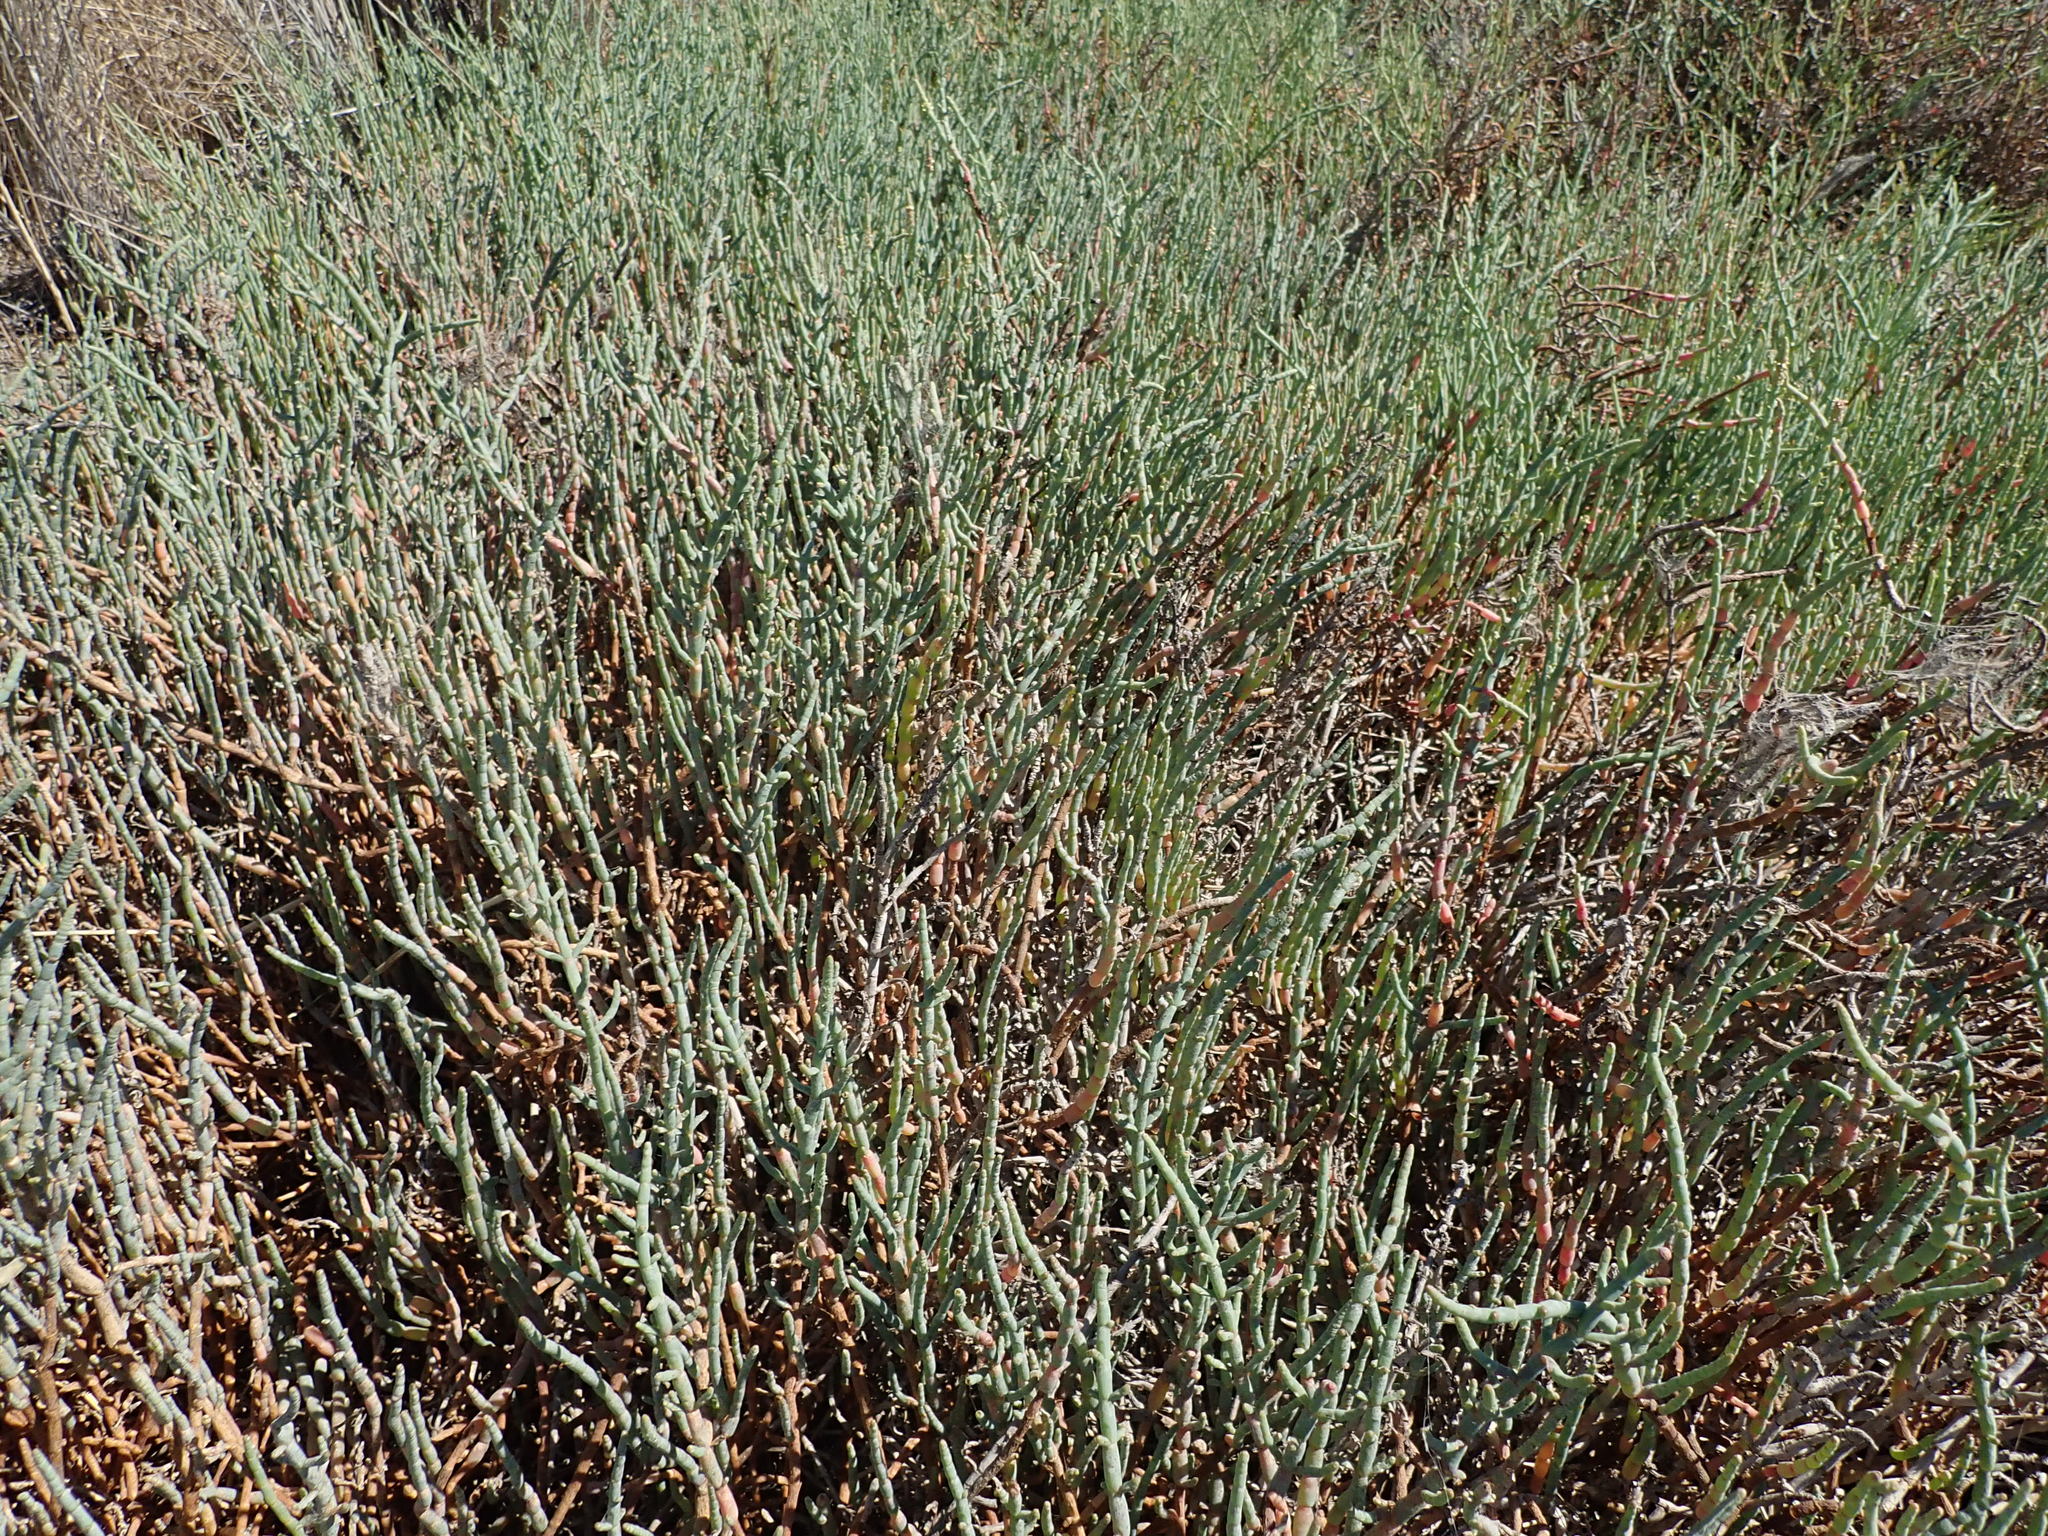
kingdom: Plantae
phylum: Tracheophyta
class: Magnoliopsida
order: Caryophyllales
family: Amaranthaceae
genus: Salicornia
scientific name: Salicornia pacifica
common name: Pacific glasswort
